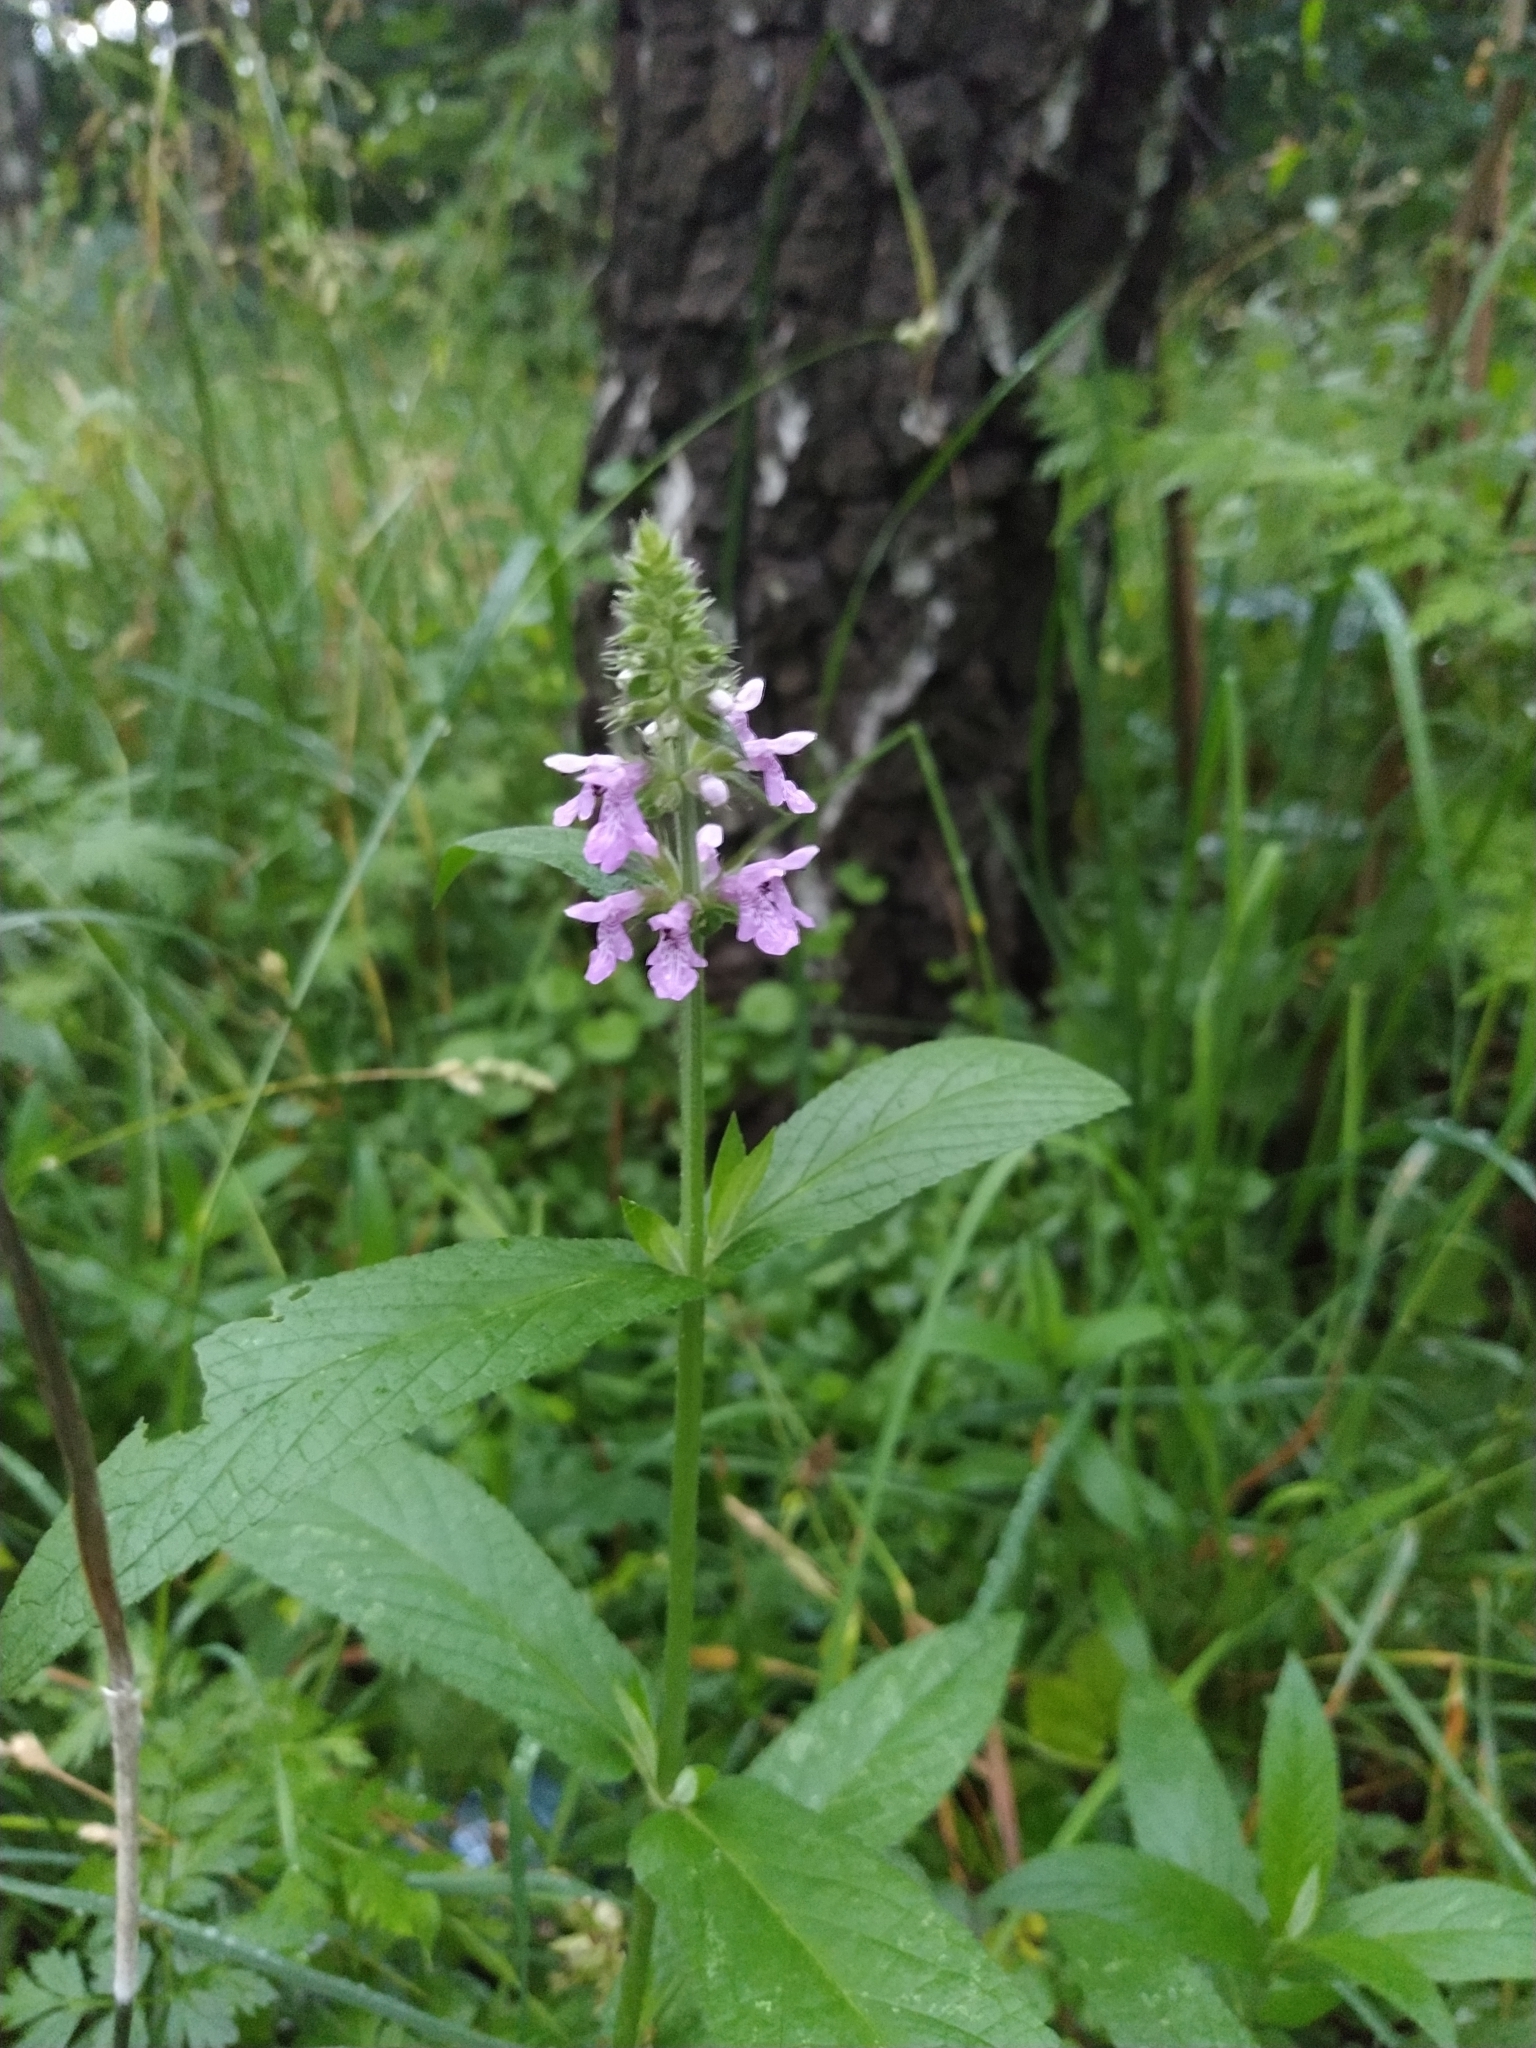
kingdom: Plantae
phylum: Tracheophyta
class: Magnoliopsida
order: Lamiales
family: Lamiaceae
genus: Stachys
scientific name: Stachys palustris
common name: Marsh woundwort
